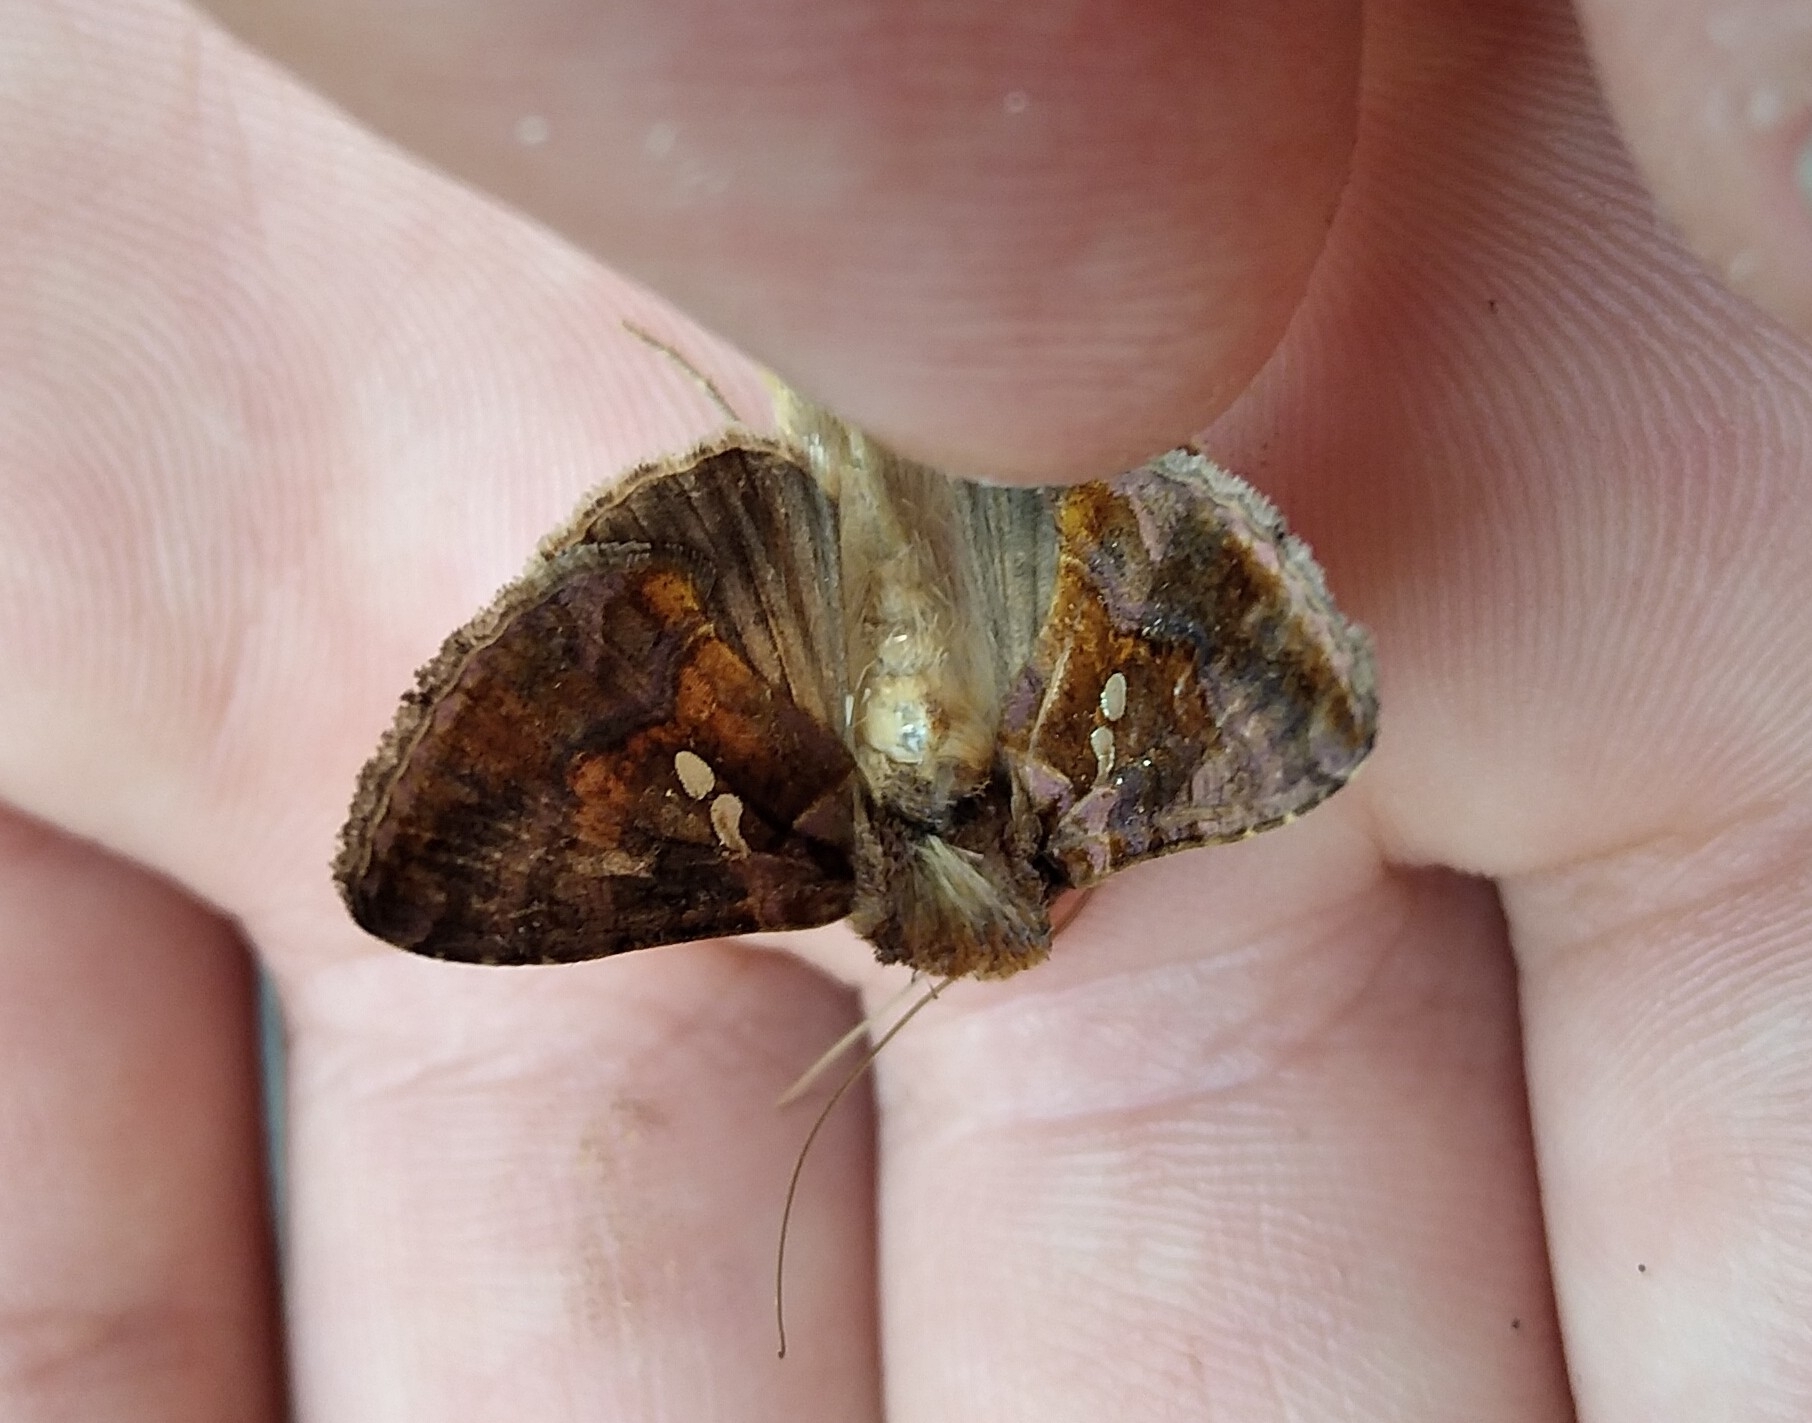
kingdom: Animalia
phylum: Arthropoda
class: Insecta
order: Lepidoptera
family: Noctuidae
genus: Chrysodeixis
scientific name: Chrysodeixis chalcites
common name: Golden twin-spot
